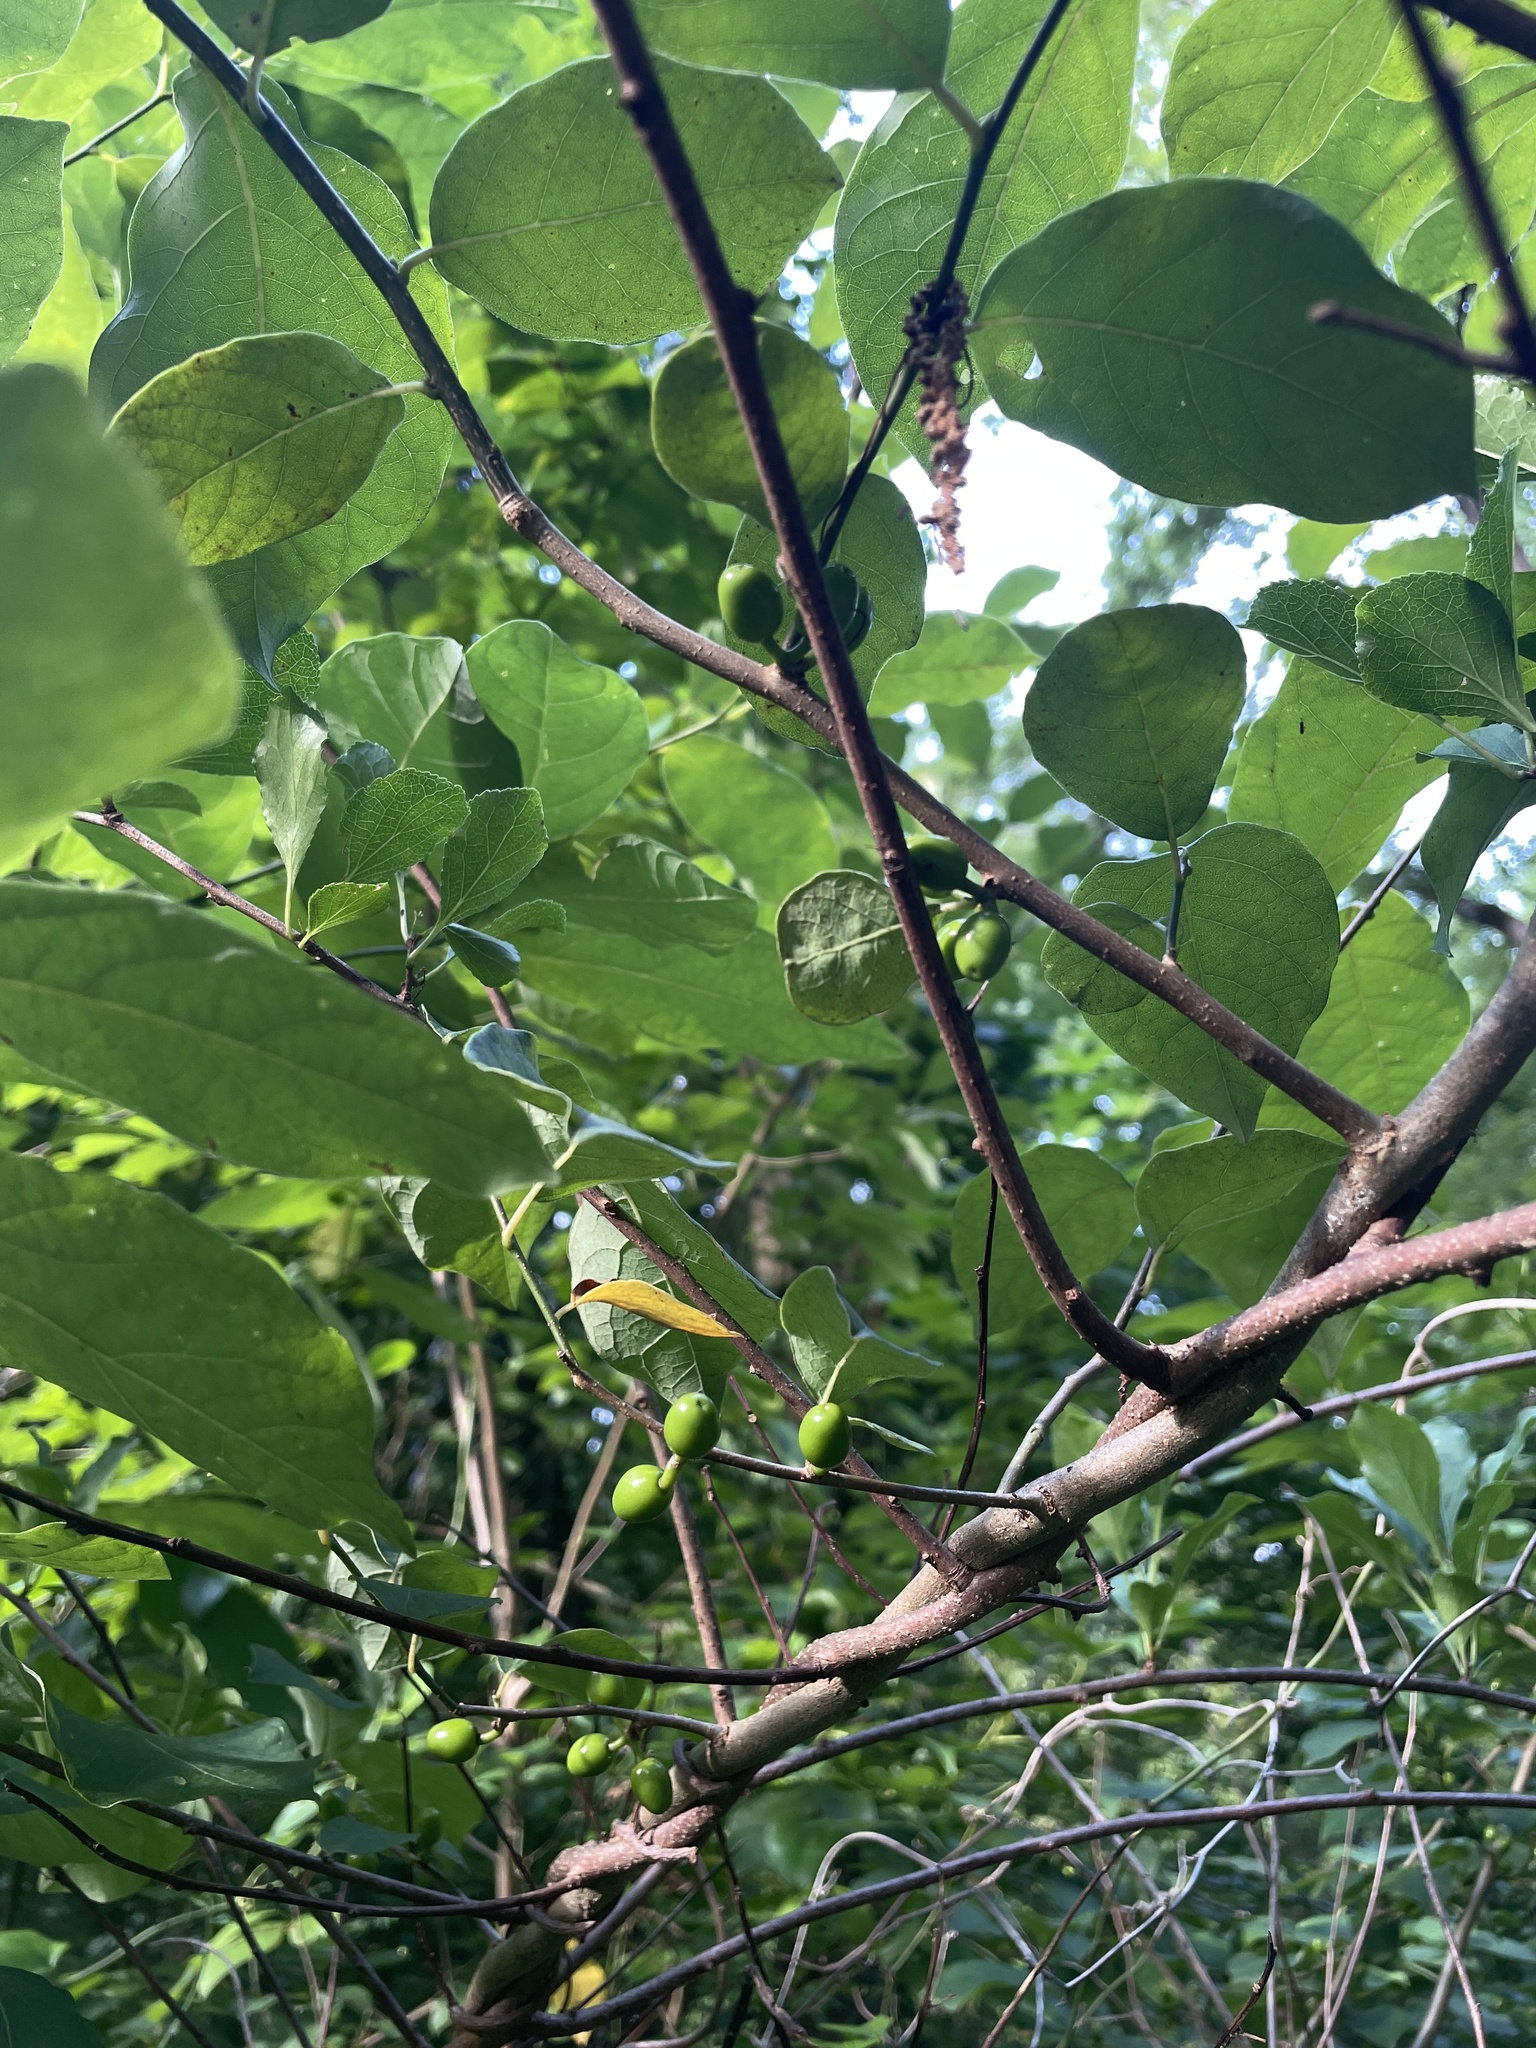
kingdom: Plantae
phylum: Tracheophyta
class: Magnoliopsida
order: Laurales
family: Lauraceae
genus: Lindera
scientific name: Lindera benzoin
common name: Spicebush
